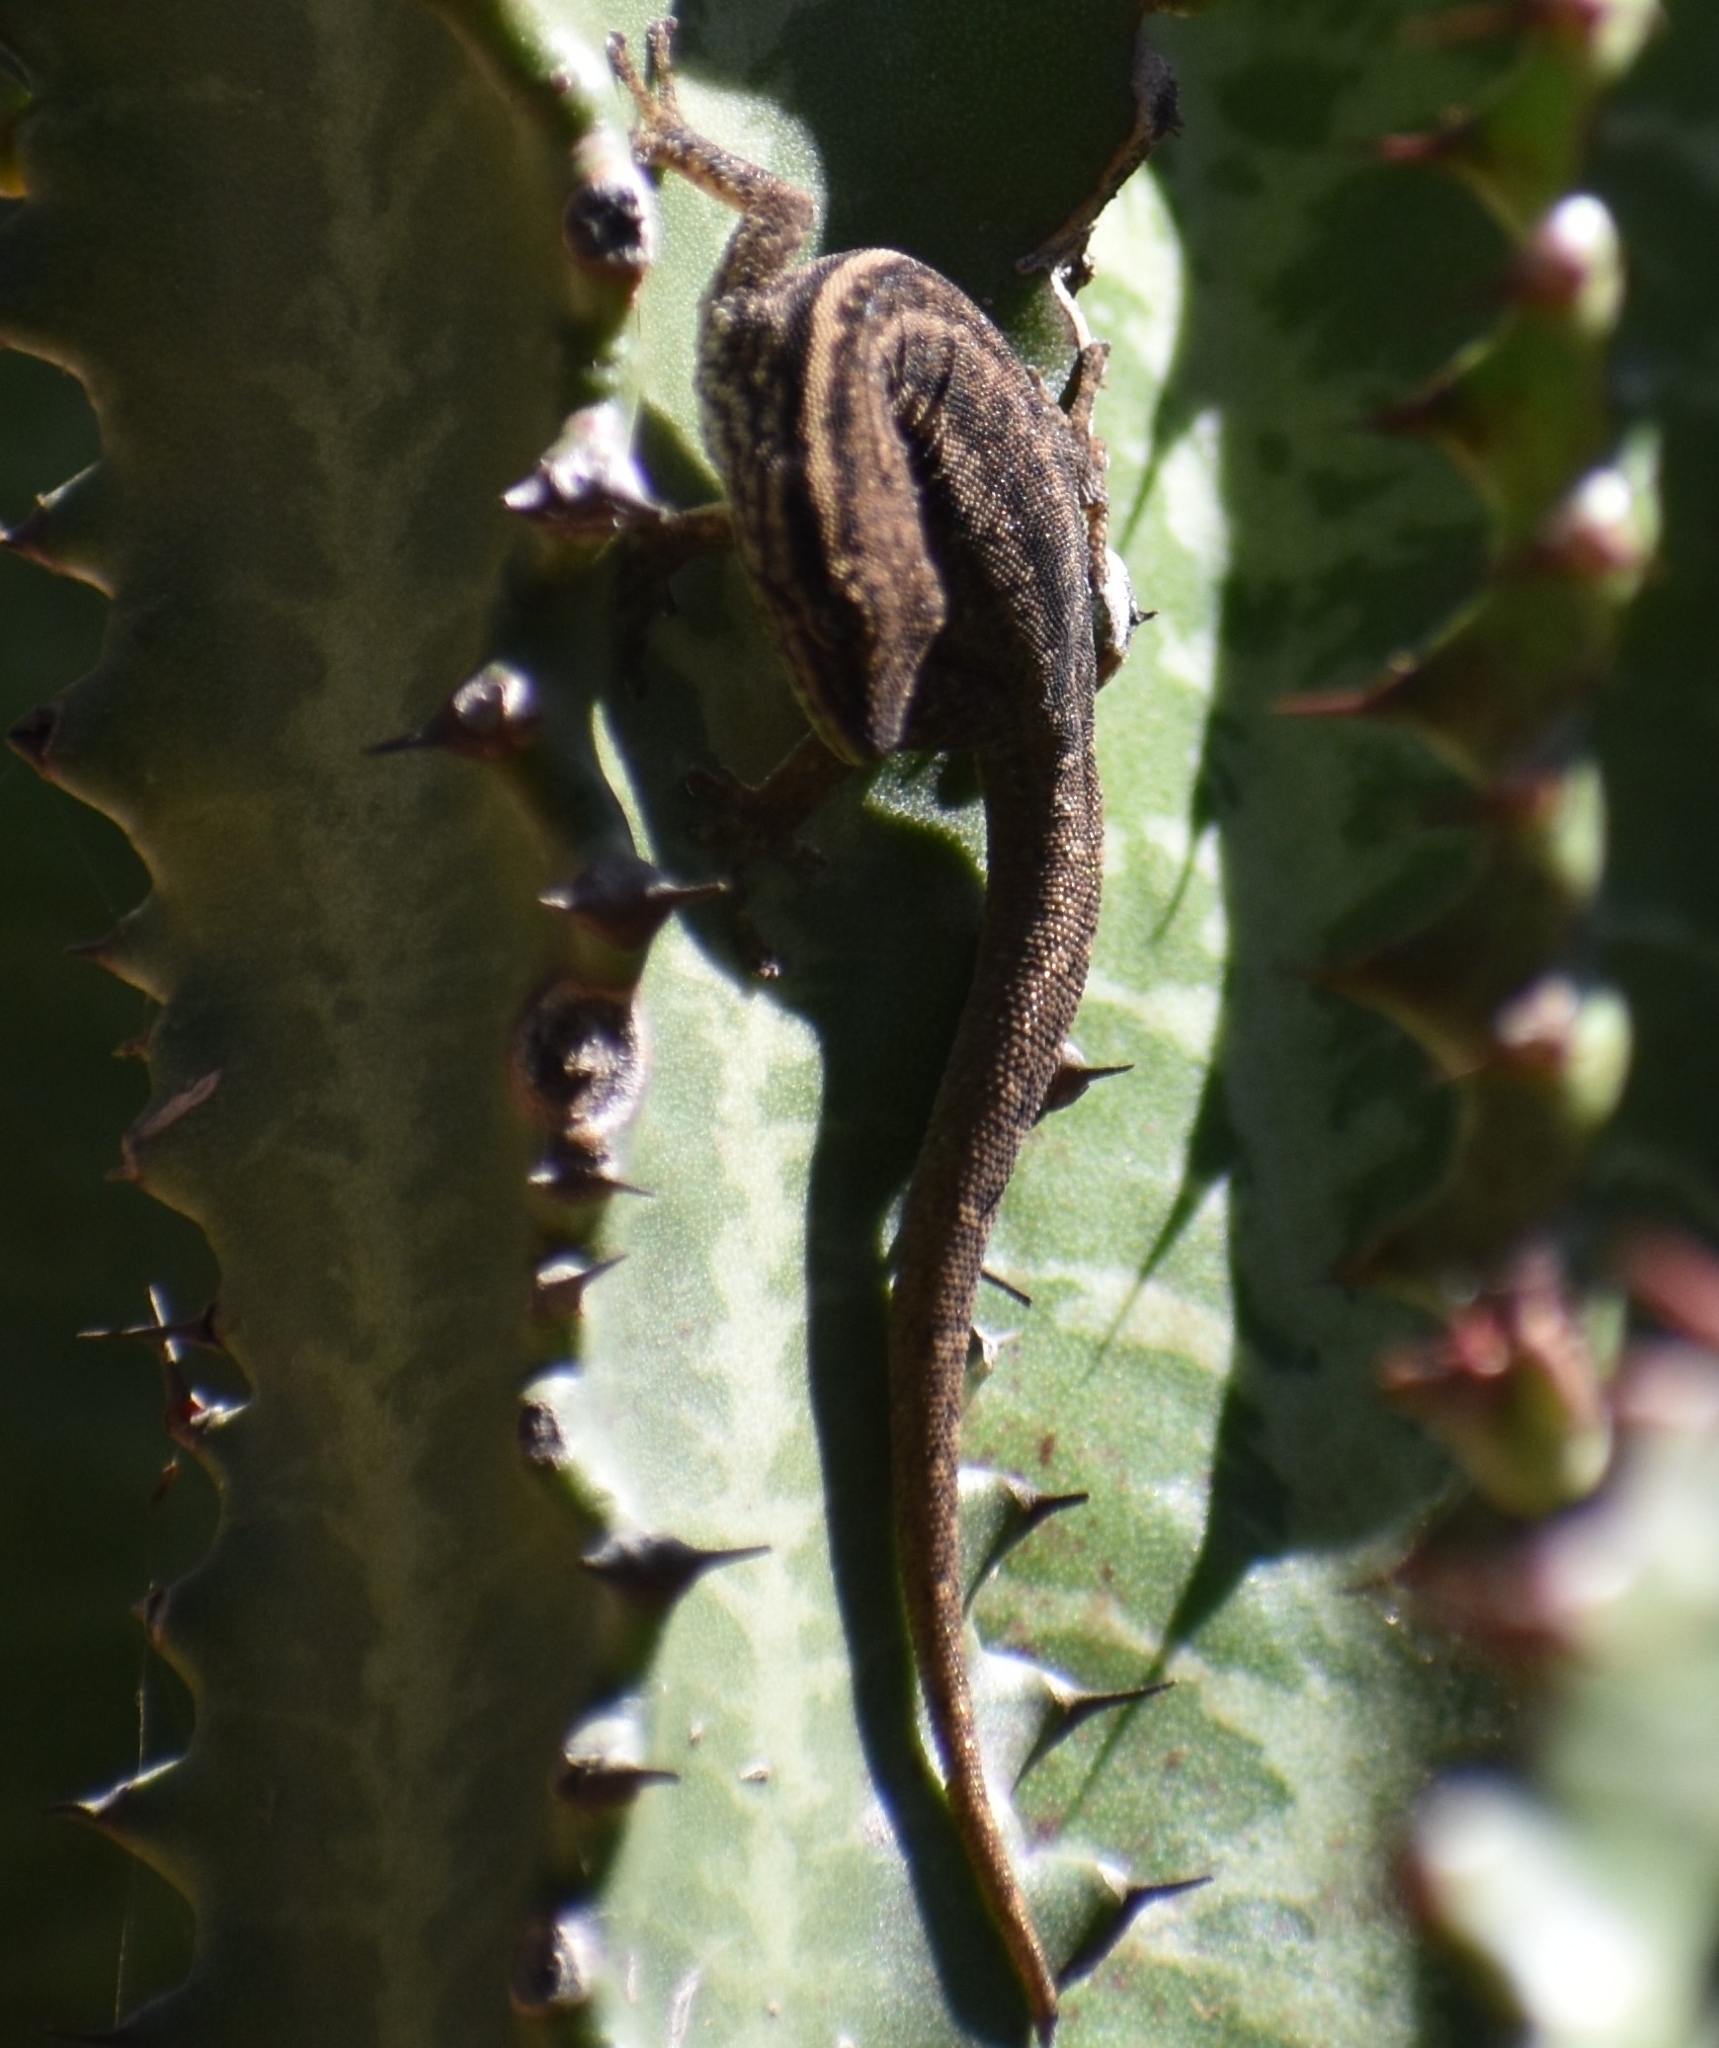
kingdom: Animalia
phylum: Chordata
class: Squamata
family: Gekkonidae
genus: Lygodactylus
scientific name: Lygodactylus capensis
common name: Cape dwarf gecko
